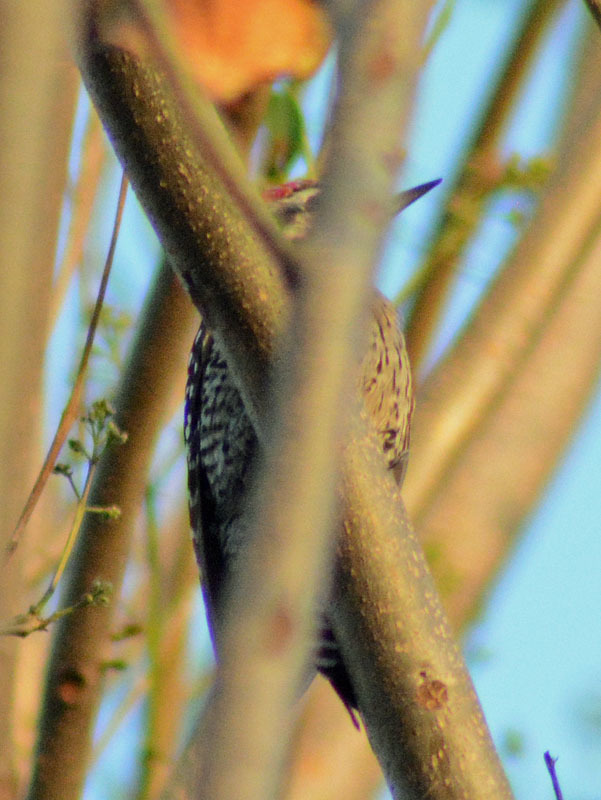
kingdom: Animalia
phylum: Chordata
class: Aves
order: Piciformes
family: Picidae
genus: Dryobates
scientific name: Dryobates scalaris
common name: Ladder-backed woodpecker
